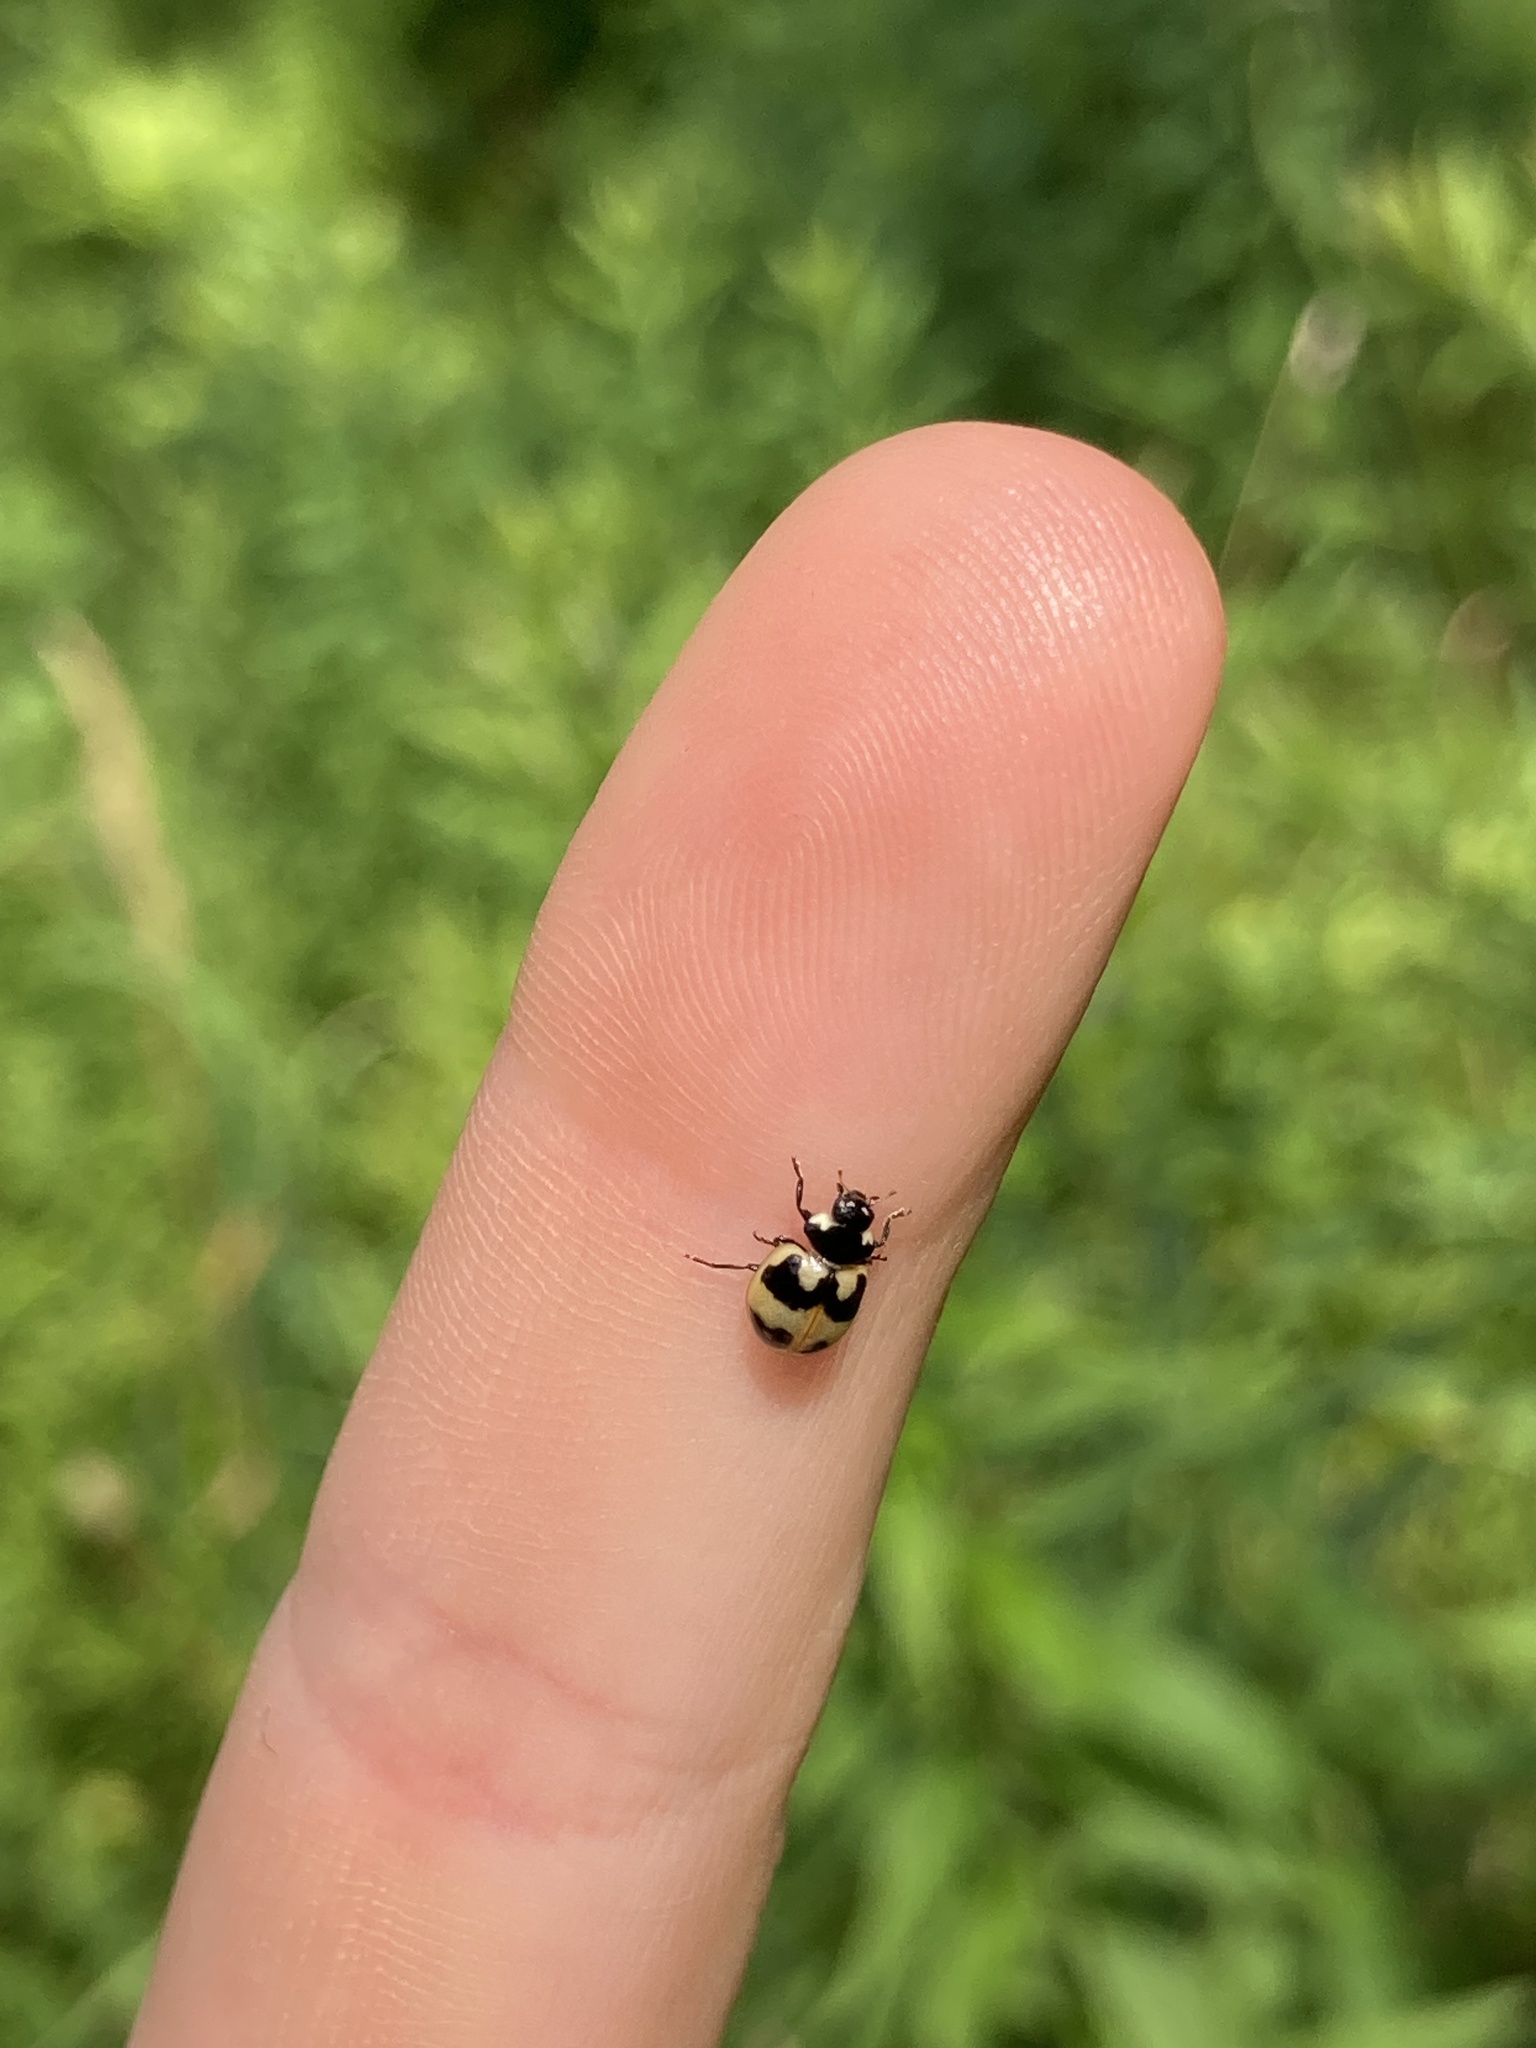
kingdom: Animalia
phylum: Arthropoda
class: Insecta
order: Coleoptera
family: Coccinellidae
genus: Coccinella
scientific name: Coccinella hieroglyphica
